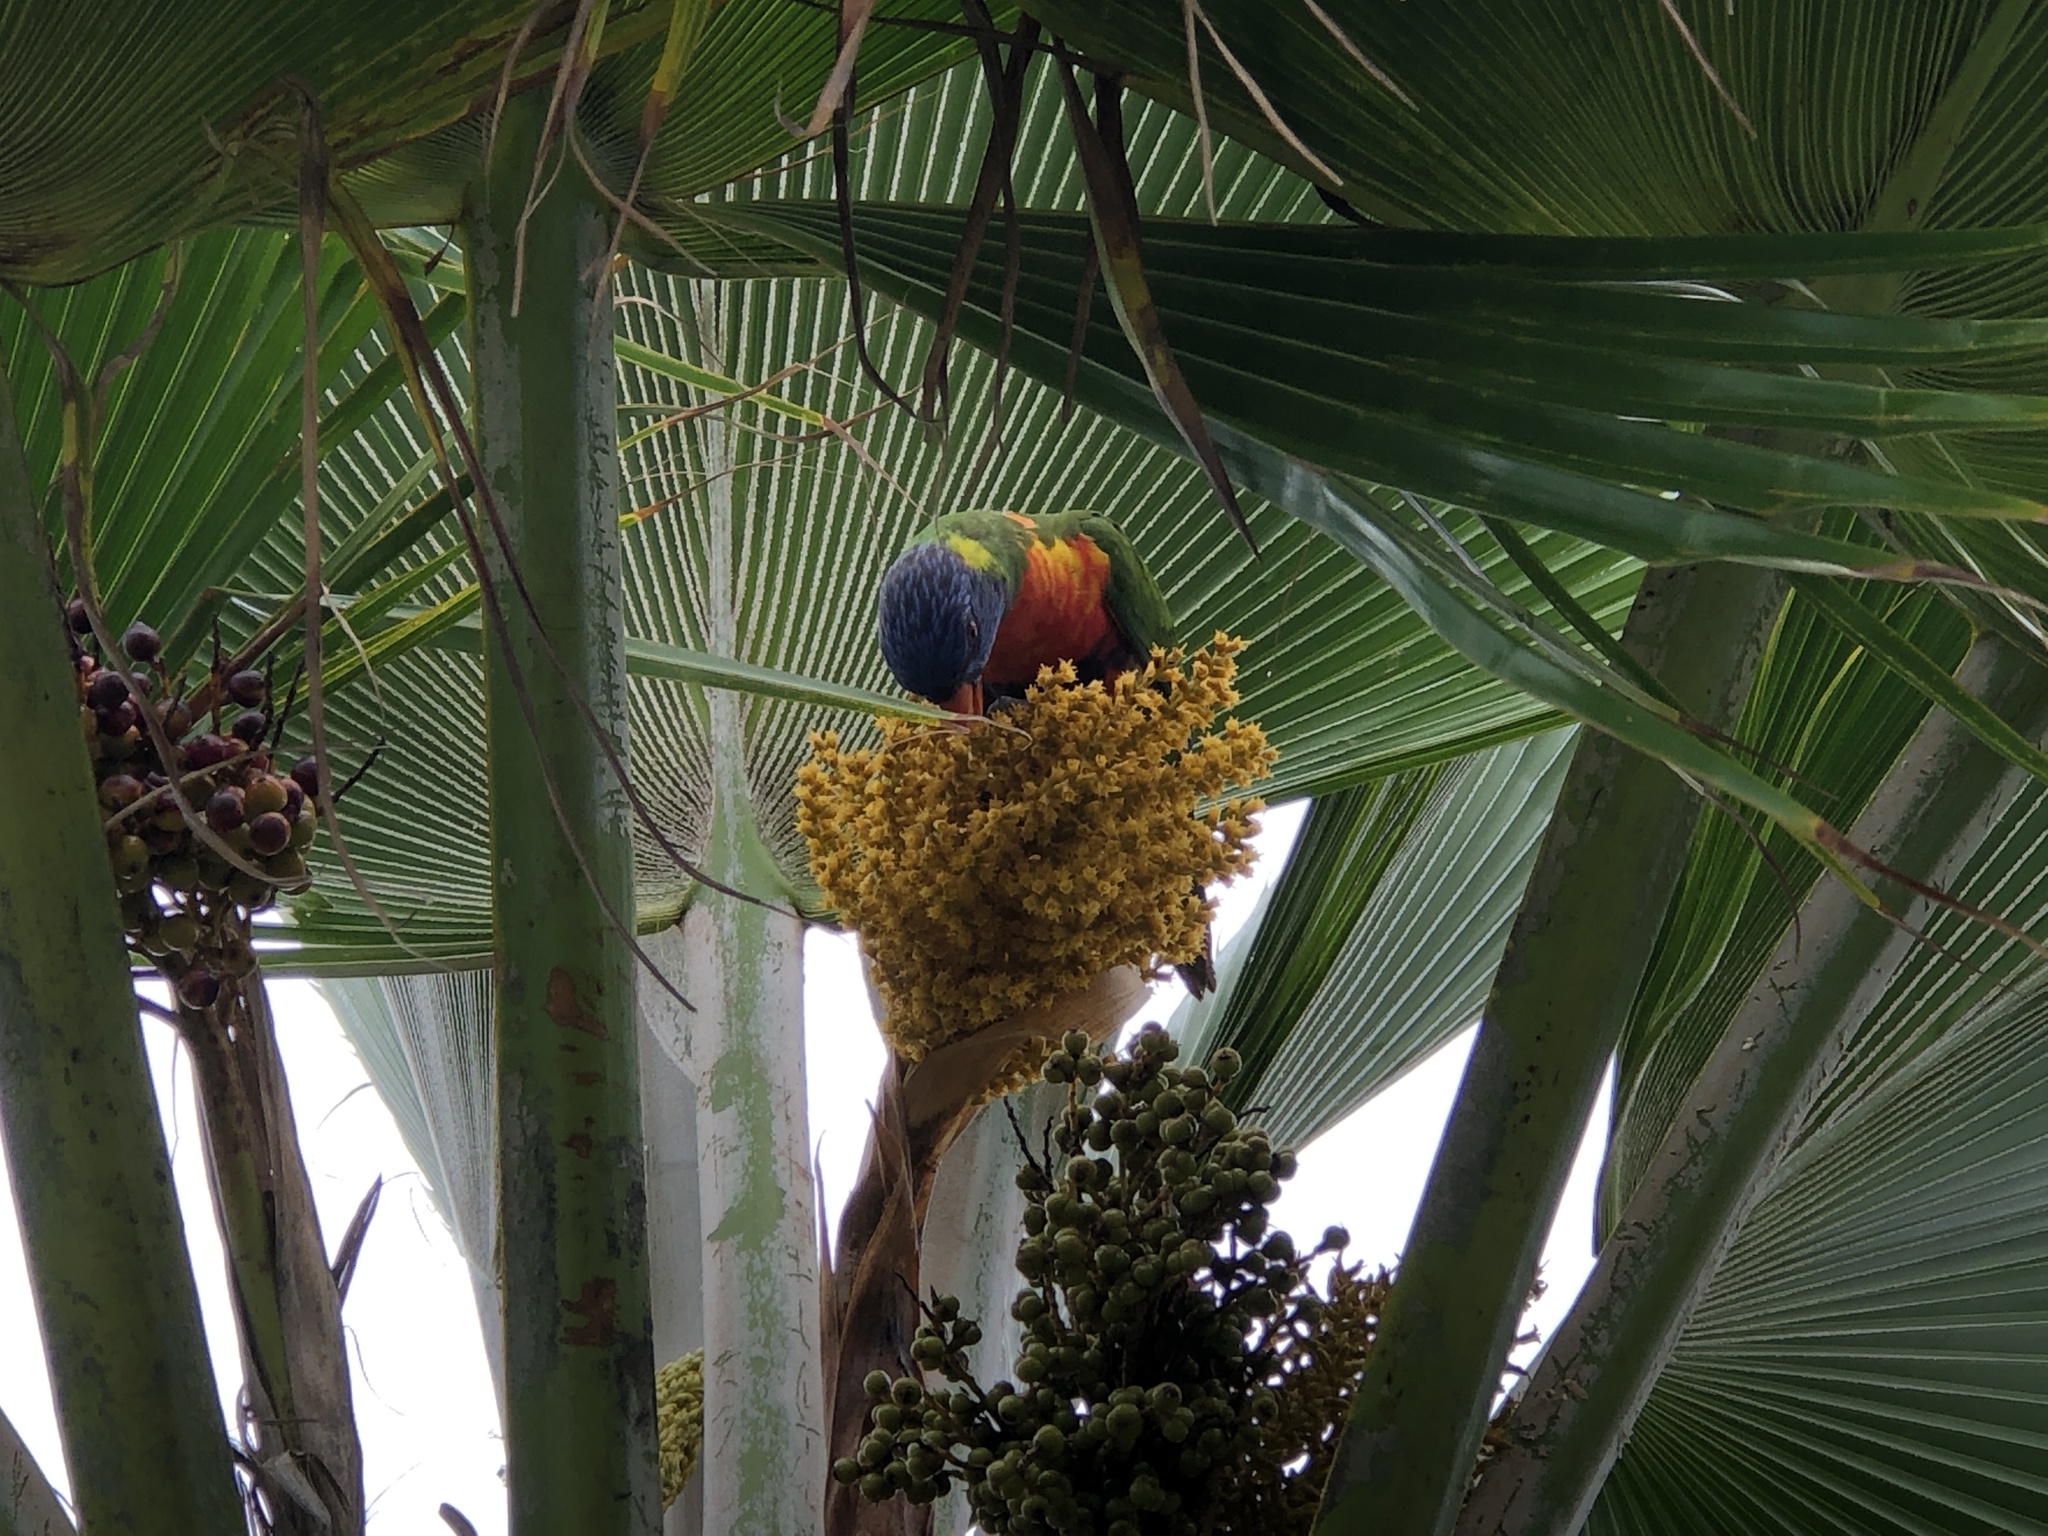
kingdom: Animalia
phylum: Chordata
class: Aves
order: Psittaciformes
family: Psittacidae
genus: Trichoglossus
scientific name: Trichoglossus haematodus
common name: Coconut lorikeet
